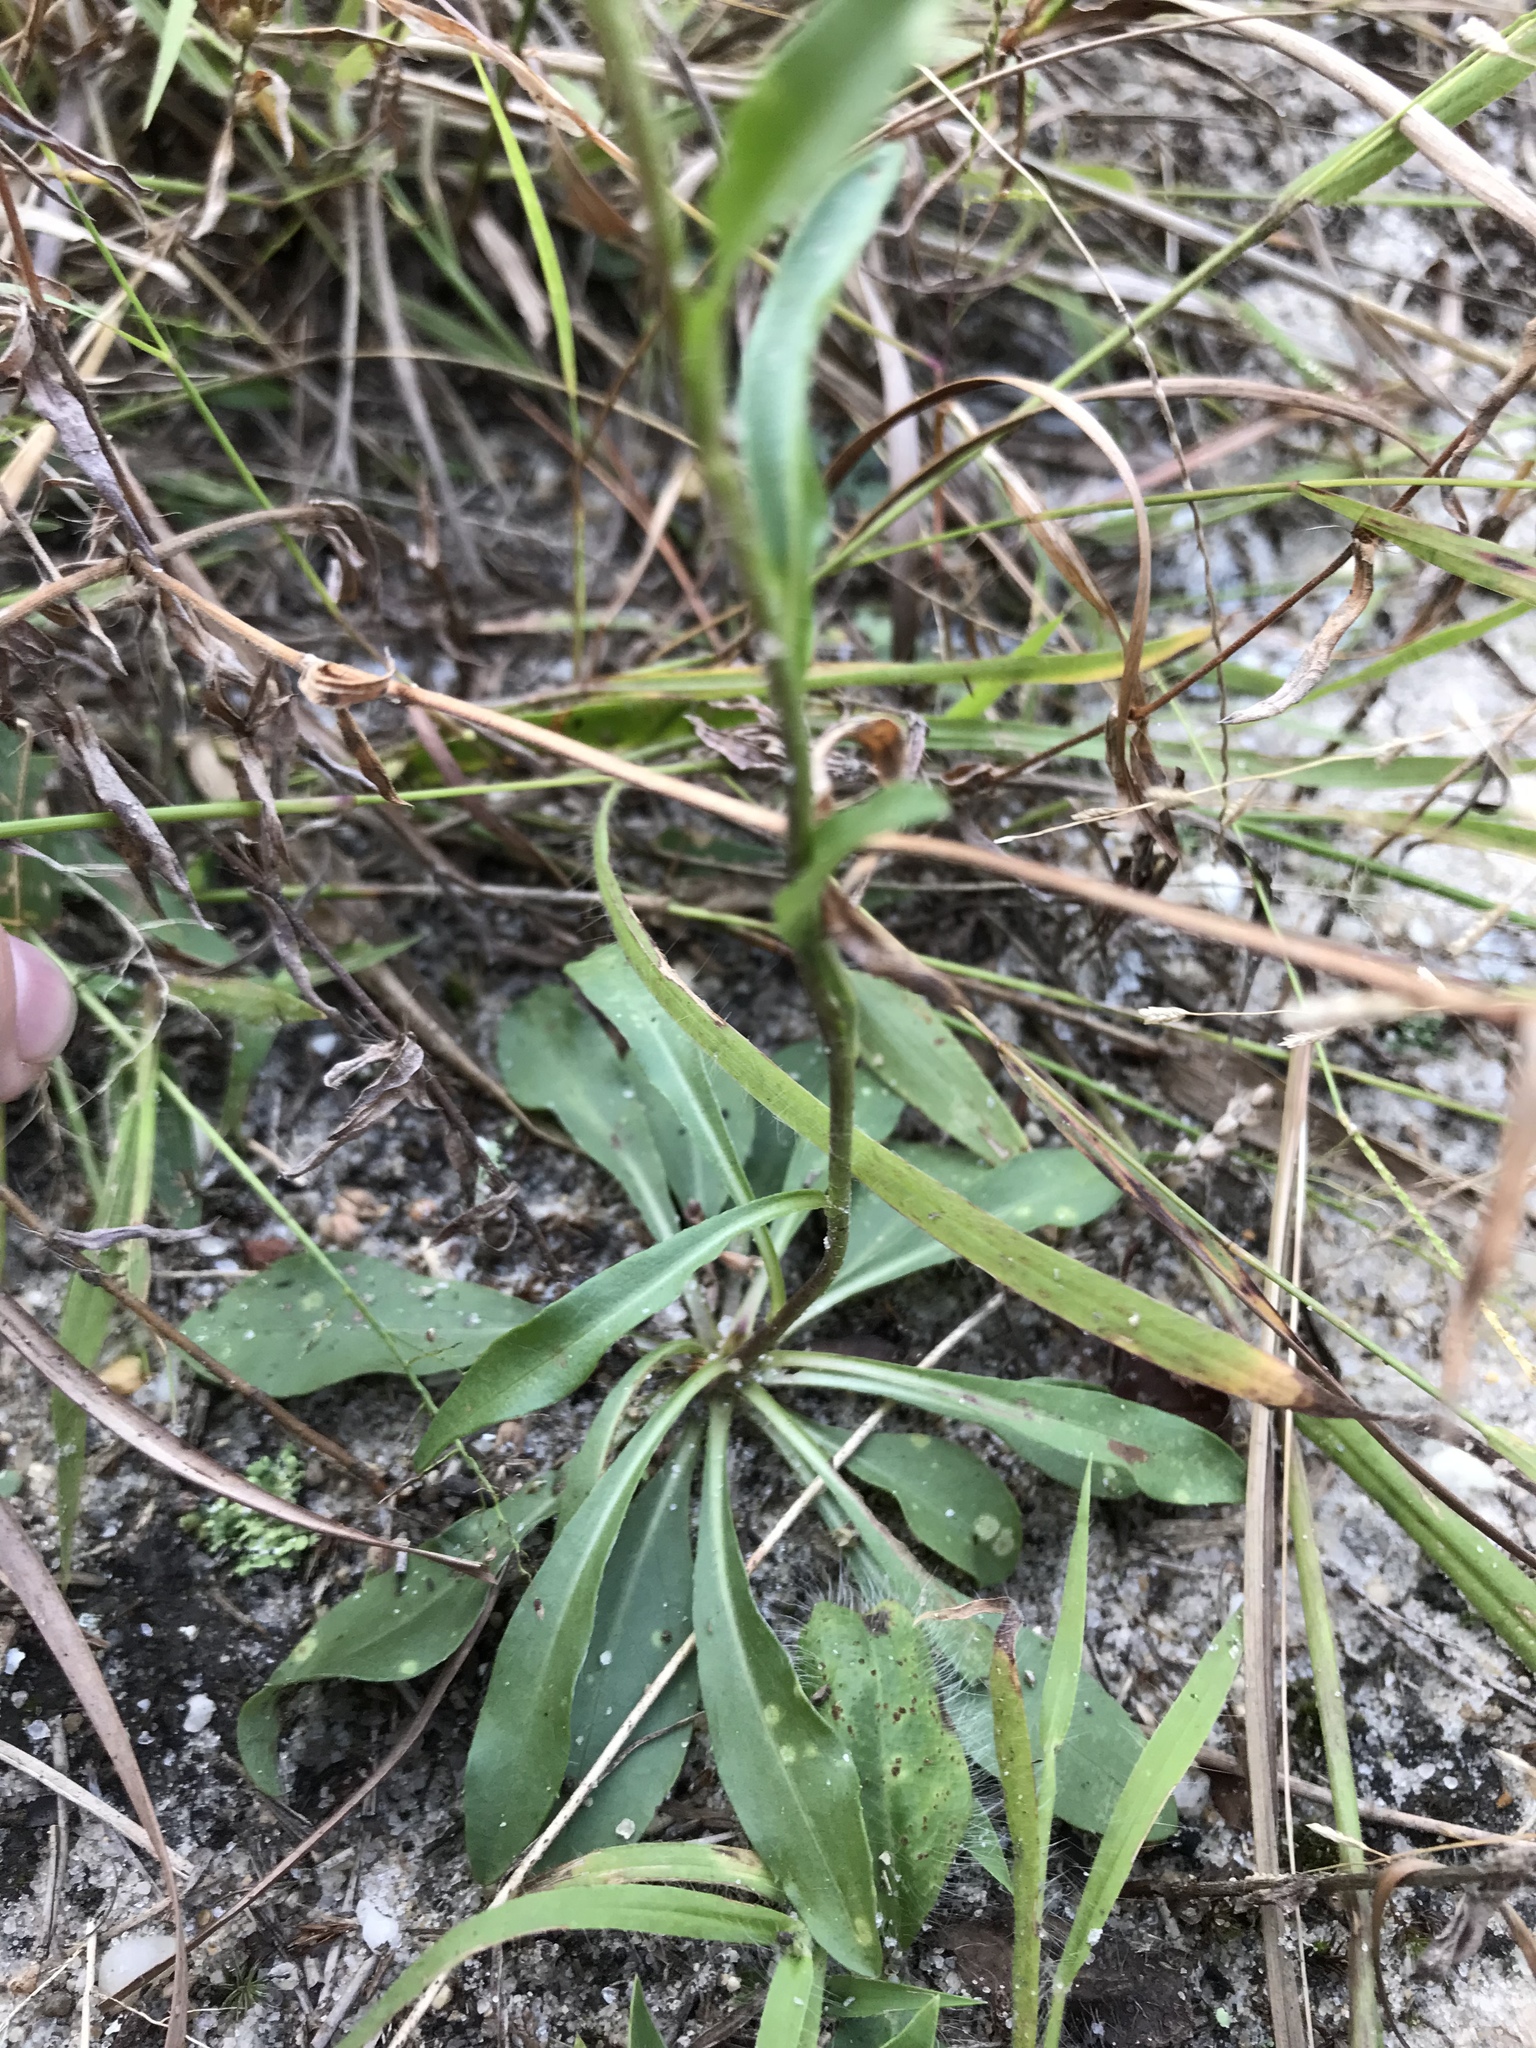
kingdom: Plantae
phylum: Tracheophyta
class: Magnoliopsida
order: Asterales
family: Asteraceae
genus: Chrysopsis
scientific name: Chrysopsis mariana
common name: Maryland golden-aster
